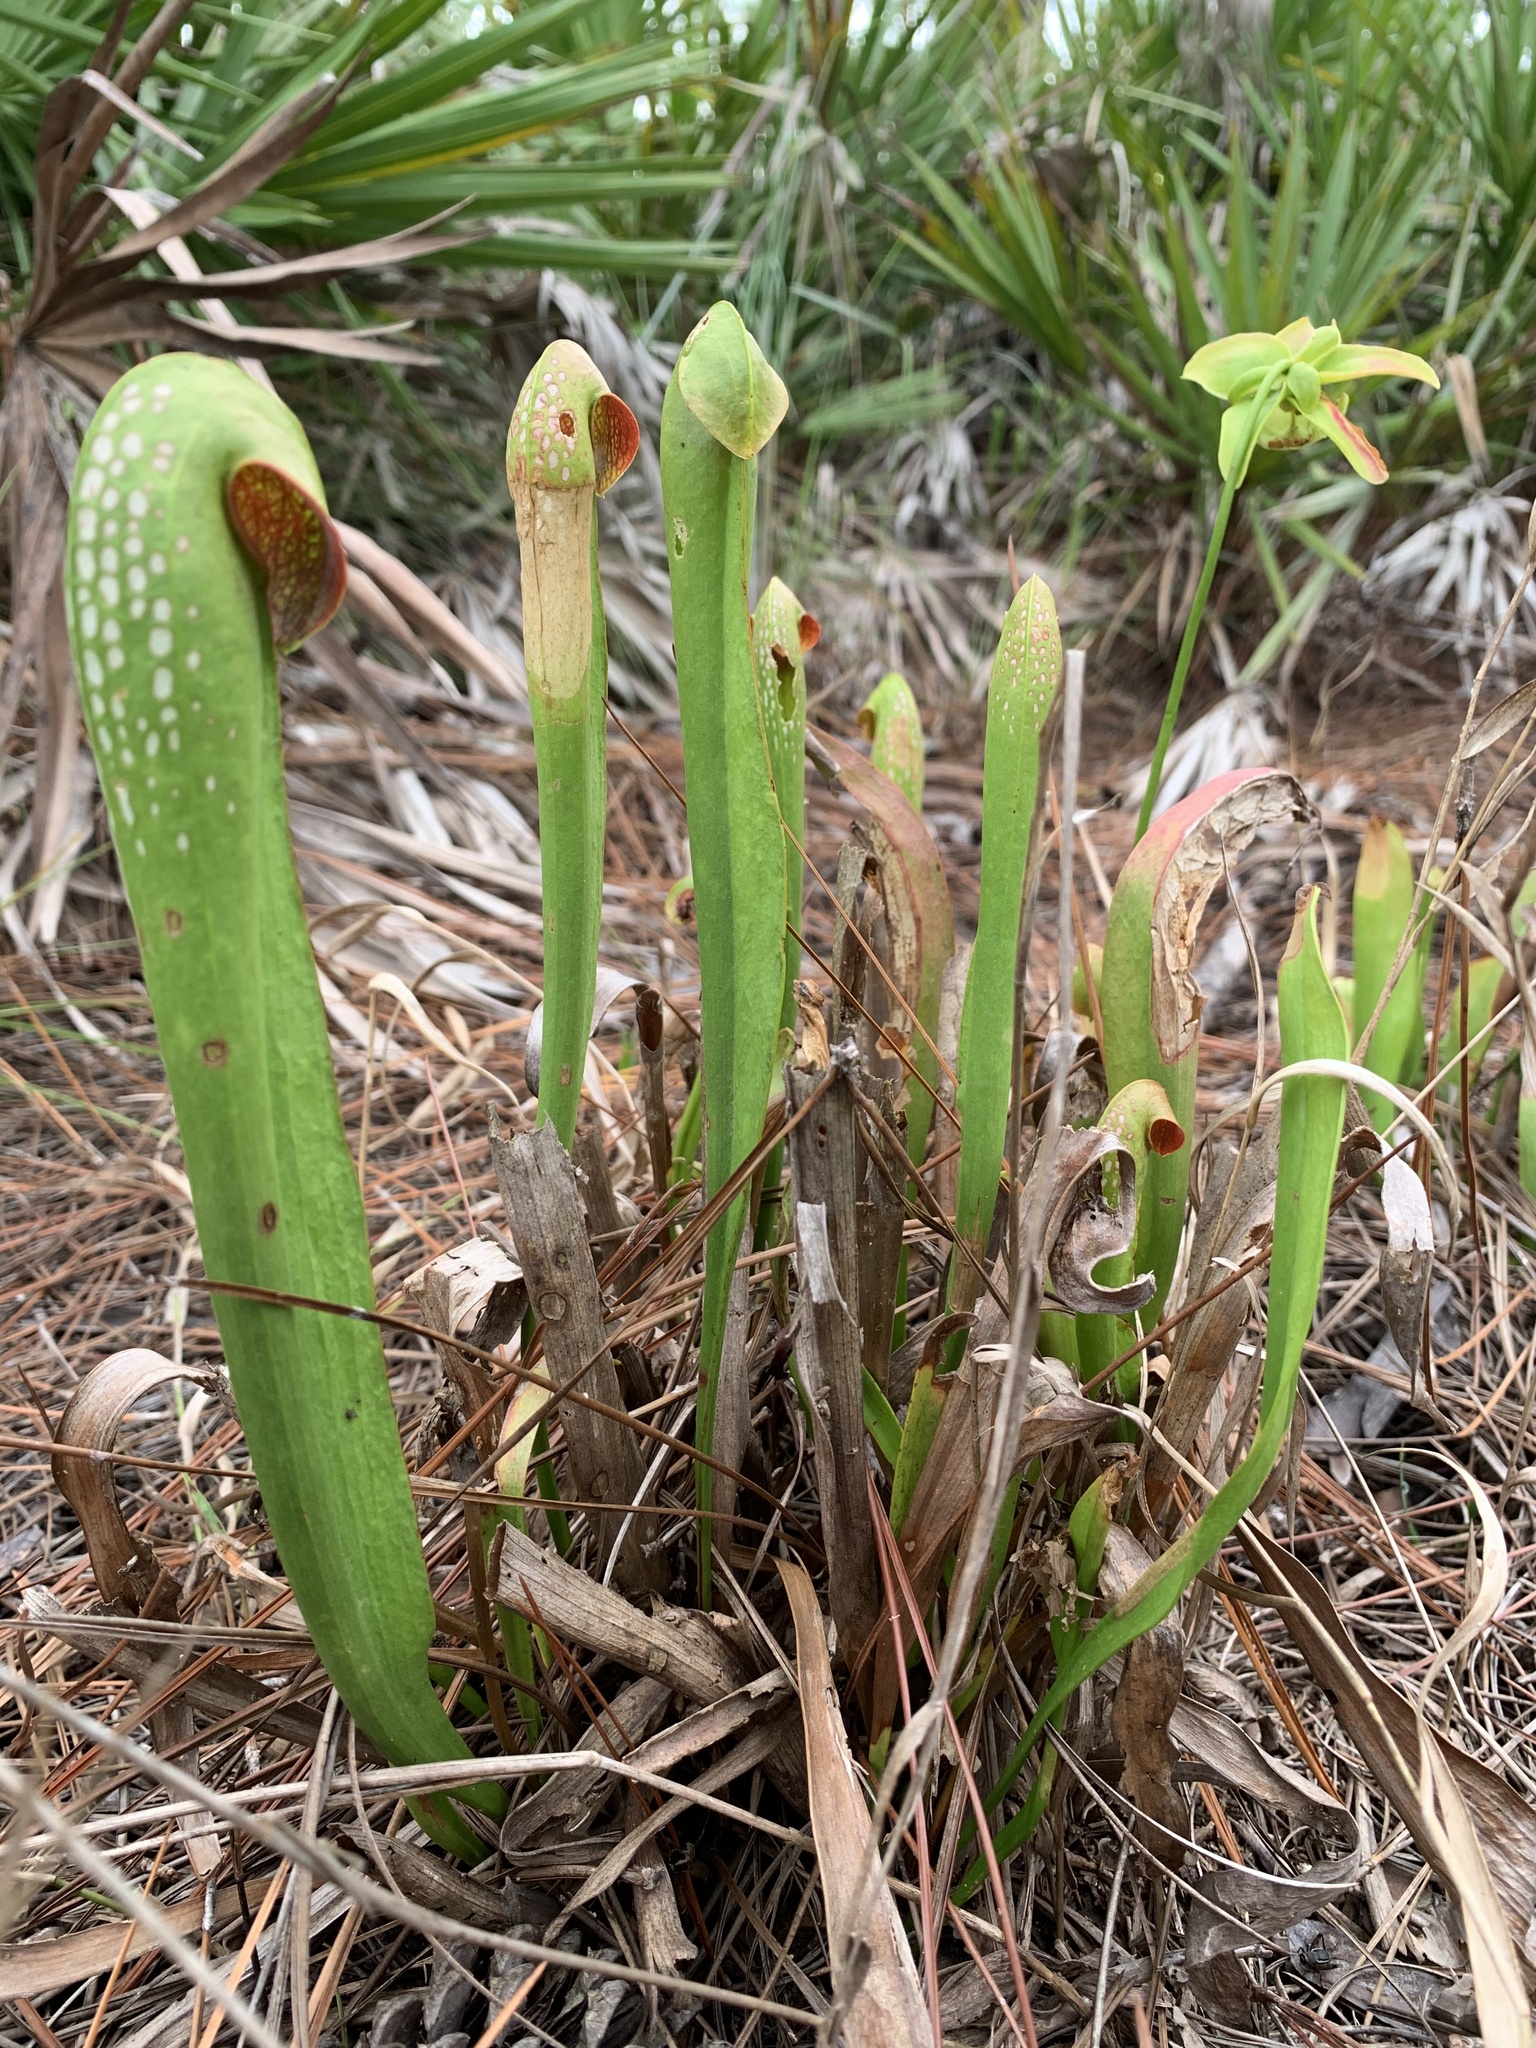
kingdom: Plantae
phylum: Tracheophyta
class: Magnoliopsida
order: Ericales
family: Sarraceniaceae
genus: Sarracenia
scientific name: Sarracenia minor
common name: Rainhat-trumpet
